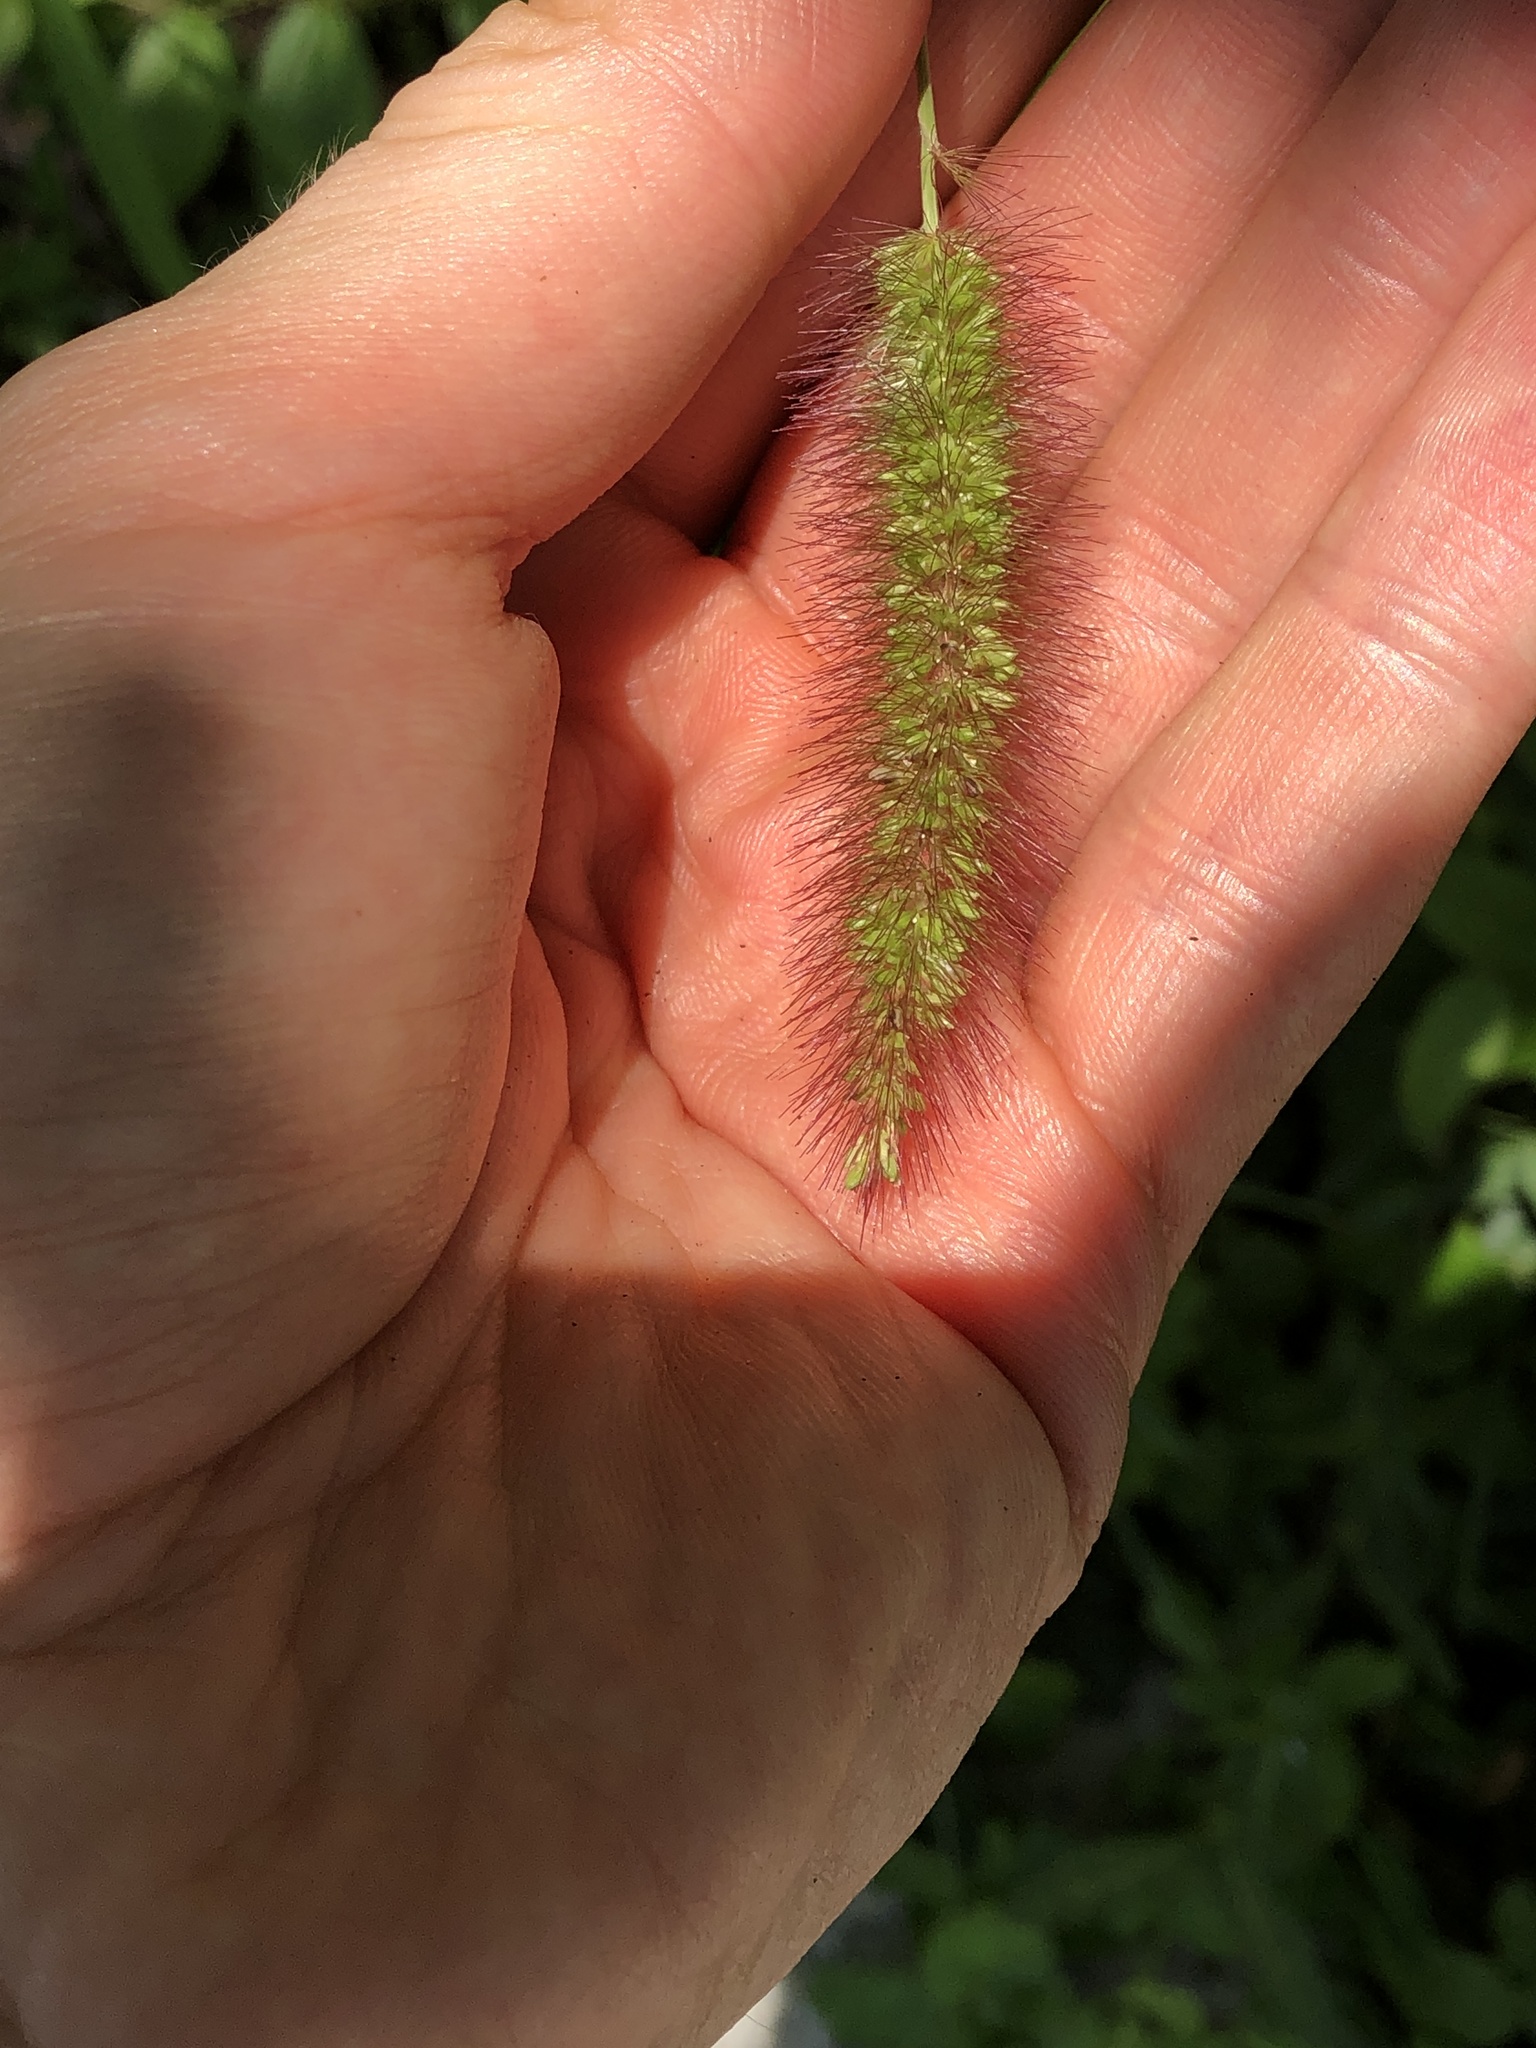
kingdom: Plantae
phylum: Tracheophyta
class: Liliopsida
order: Poales
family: Poaceae
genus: Setaria
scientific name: Setaria viridis
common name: Green bristlegrass
